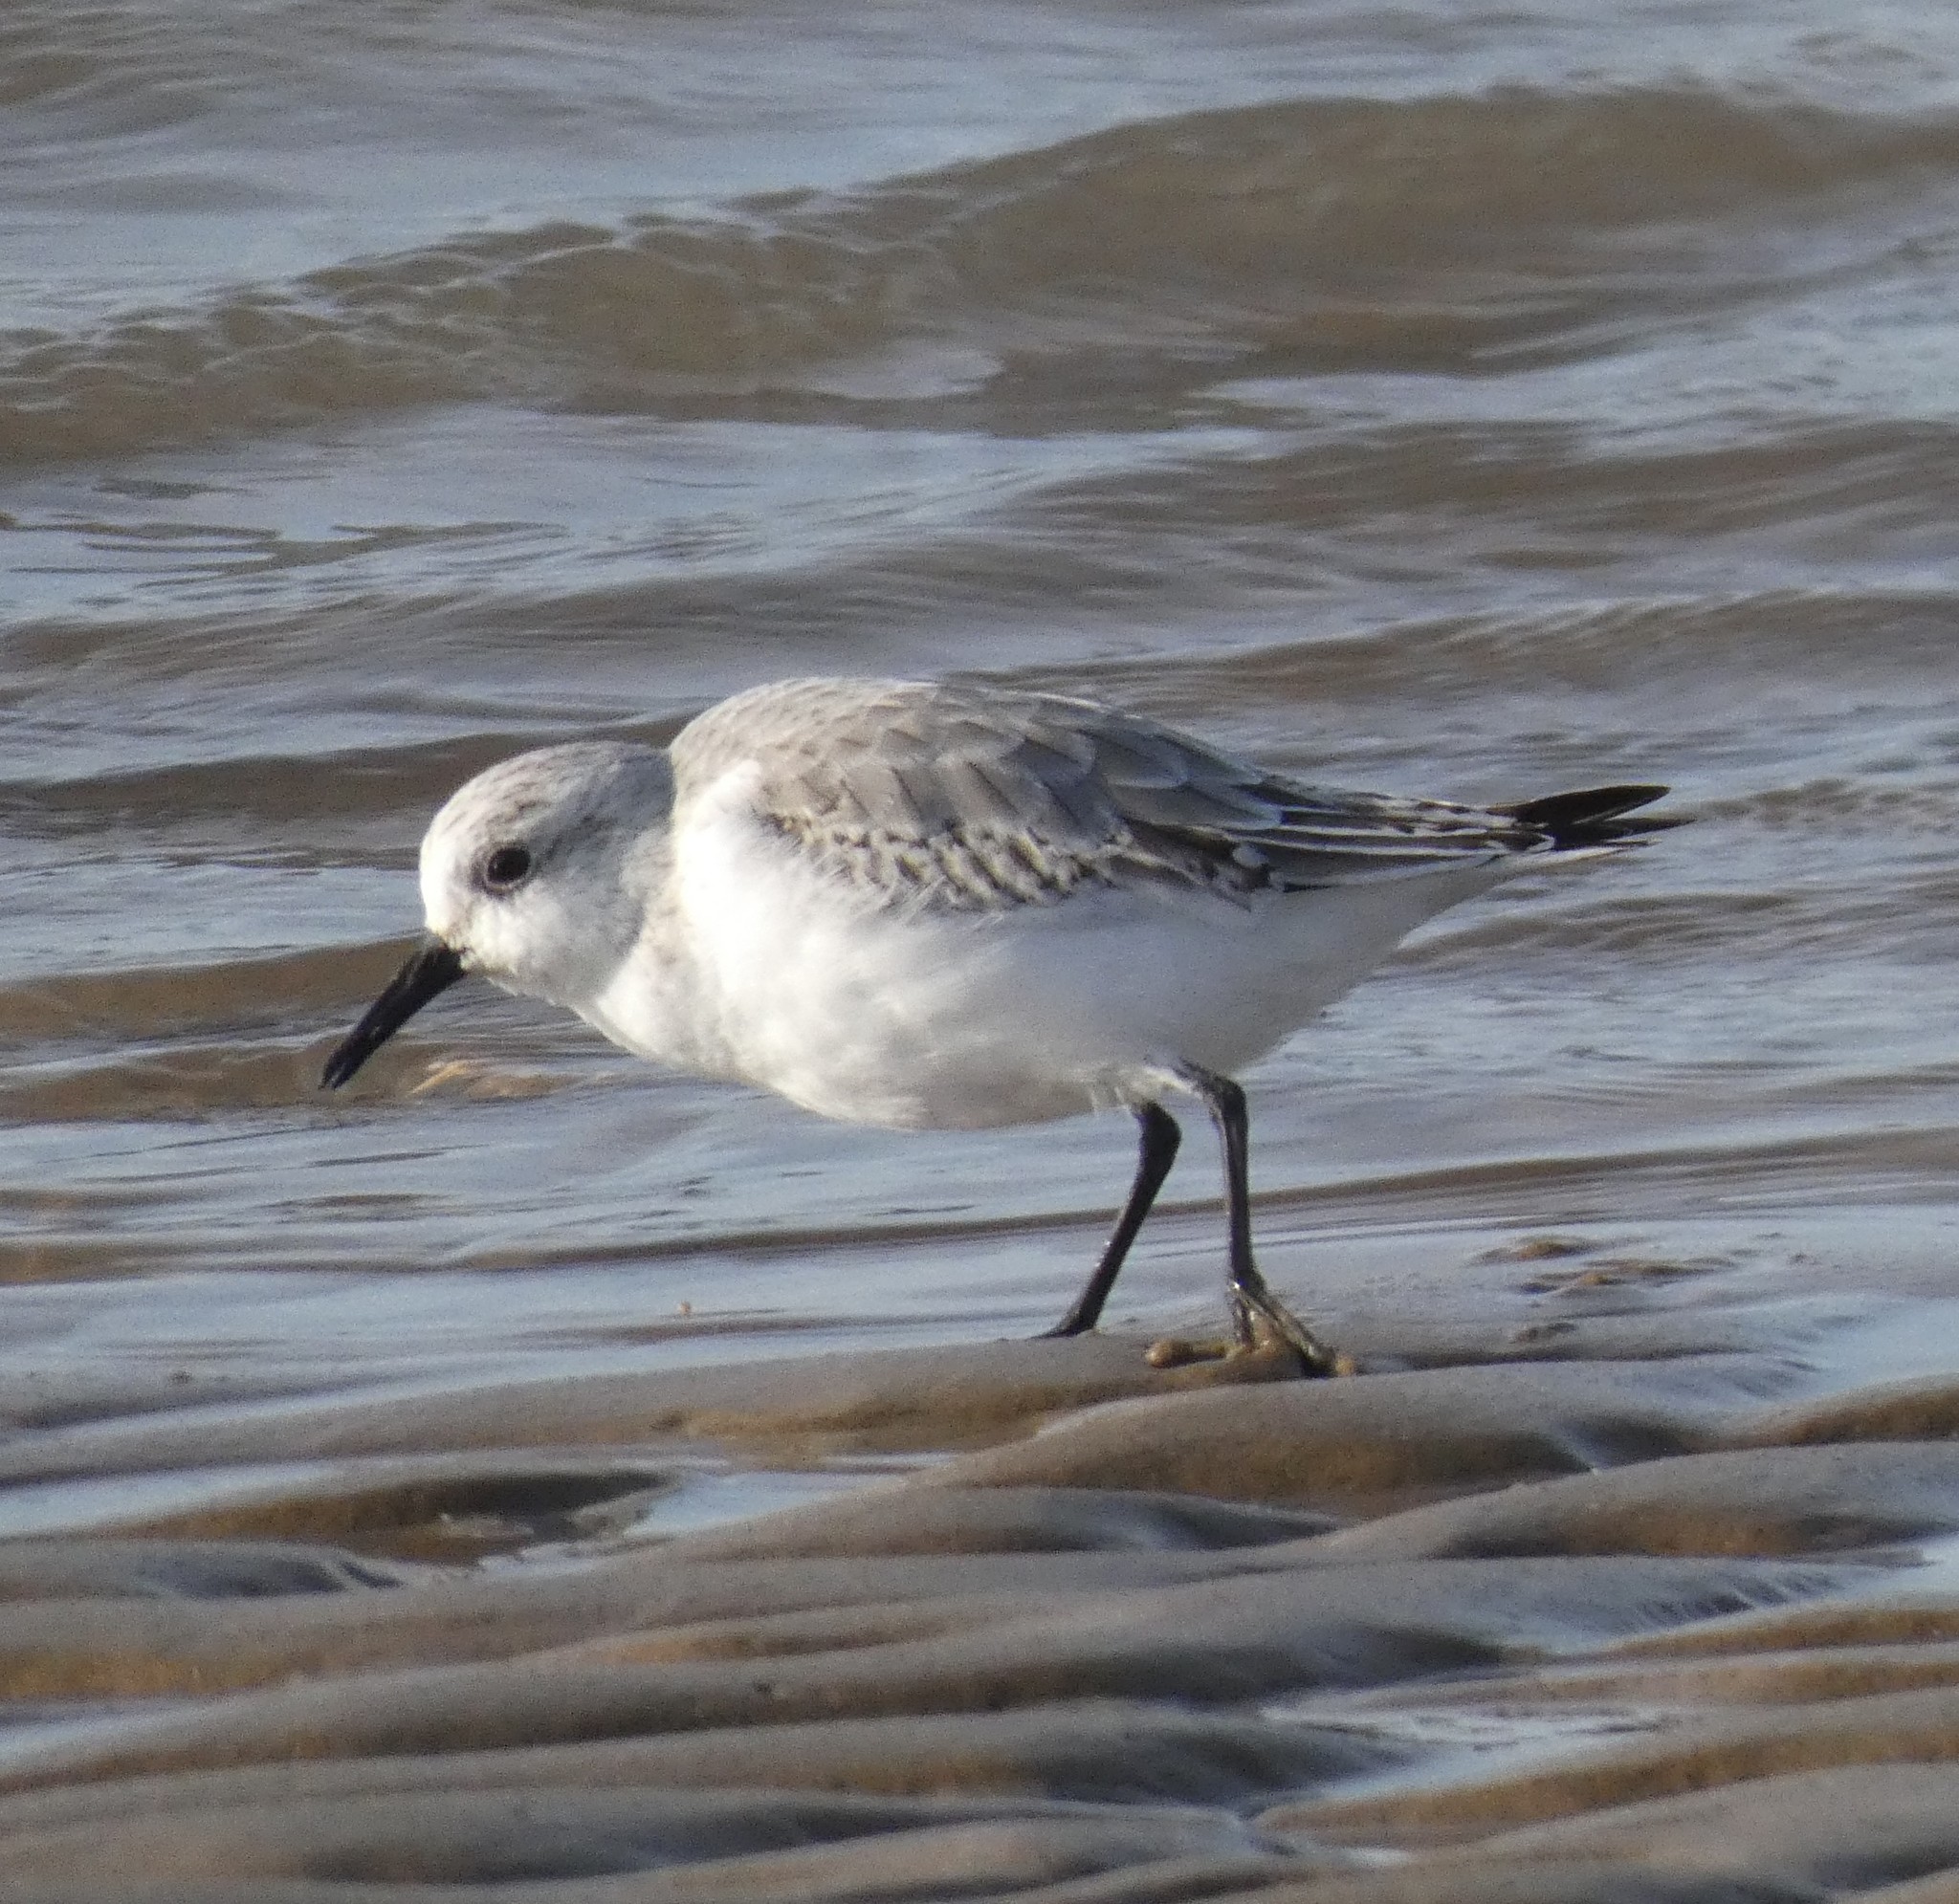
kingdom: Animalia
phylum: Chordata
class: Aves
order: Charadriiformes
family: Scolopacidae
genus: Calidris
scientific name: Calidris alba
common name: Sanderling
